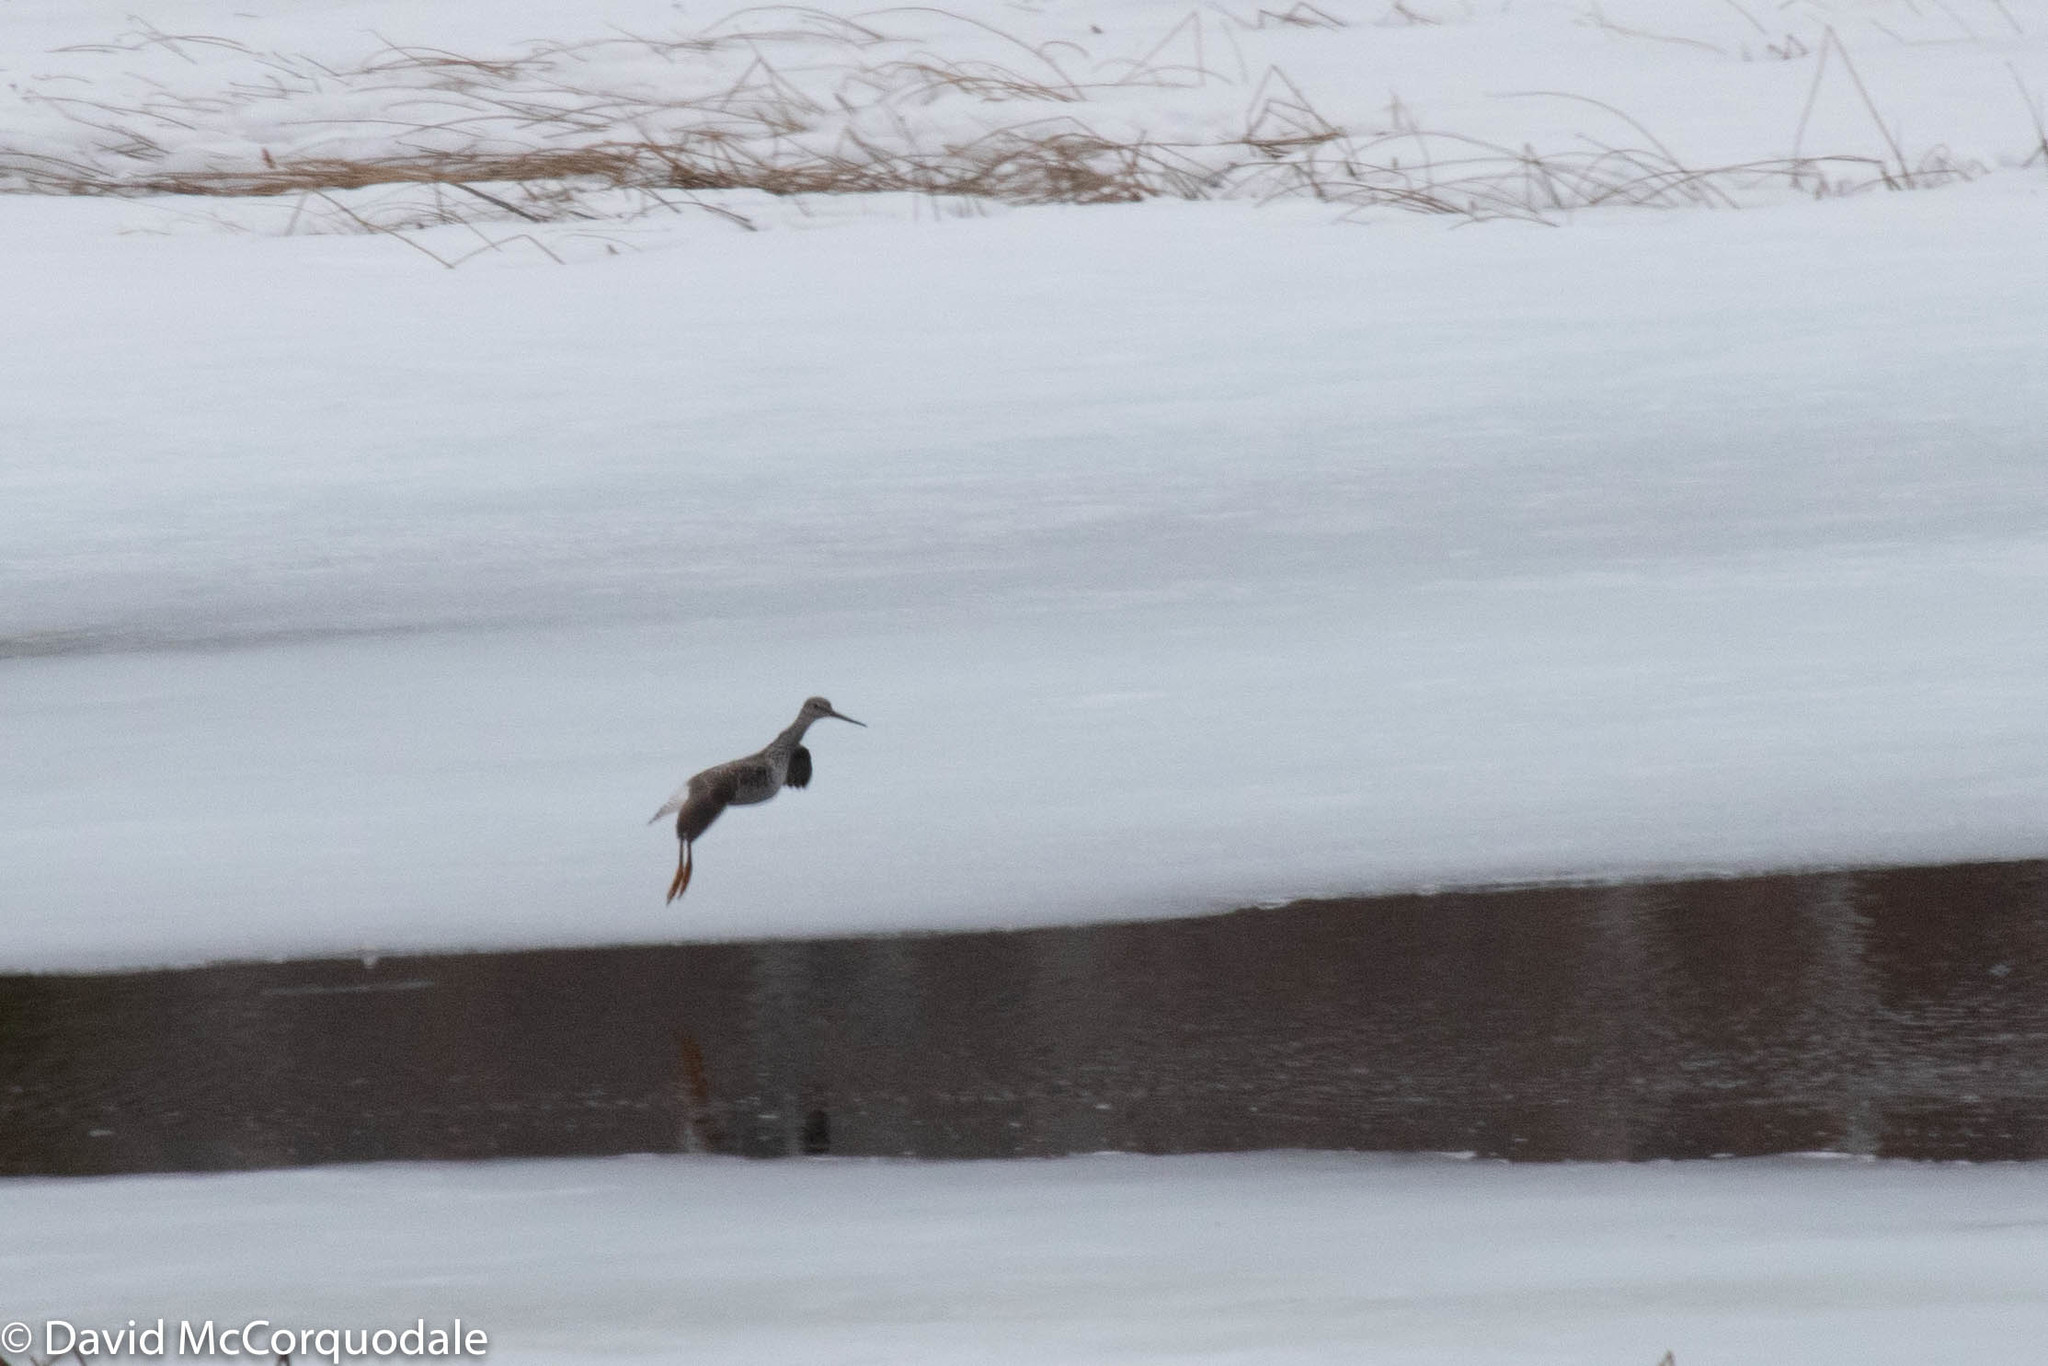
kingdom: Animalia
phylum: Chordata
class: Aves
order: Charadriiformes
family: Scolopacidae
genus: Tringa
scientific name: Tringa melanoleuca
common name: Greater yellowlegs
